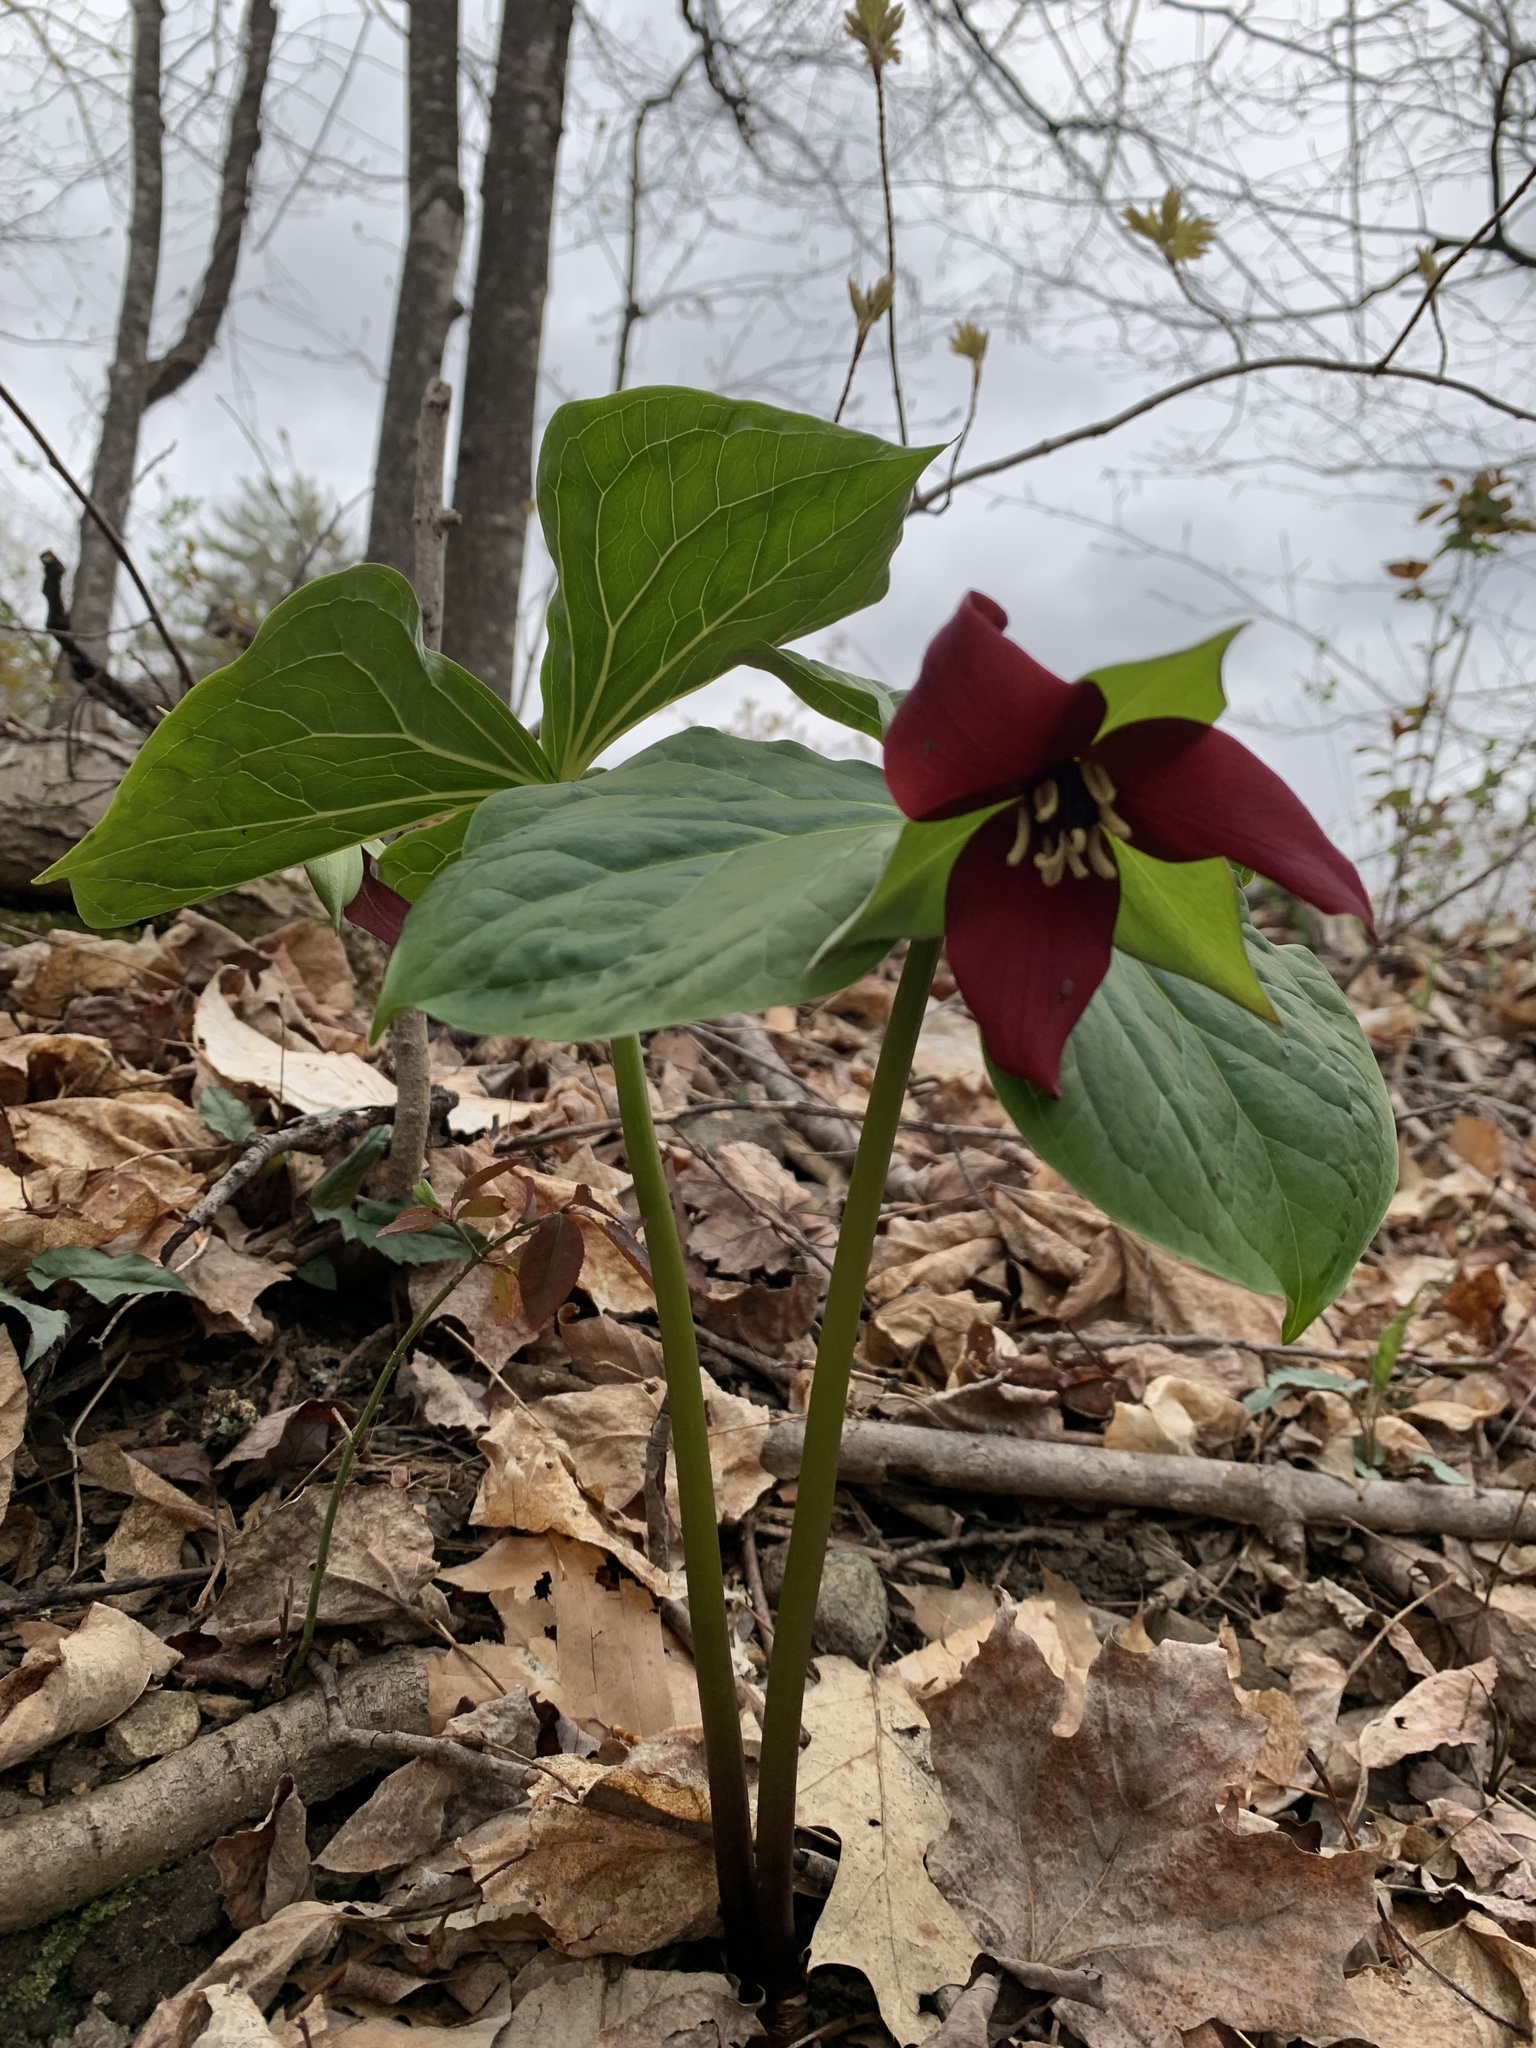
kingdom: Plantae
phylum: Tracheophyta
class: Liliopsida
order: Liliales
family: Melanthiaceae
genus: Trillium
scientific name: Trillium erectum
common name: Purple trillium
